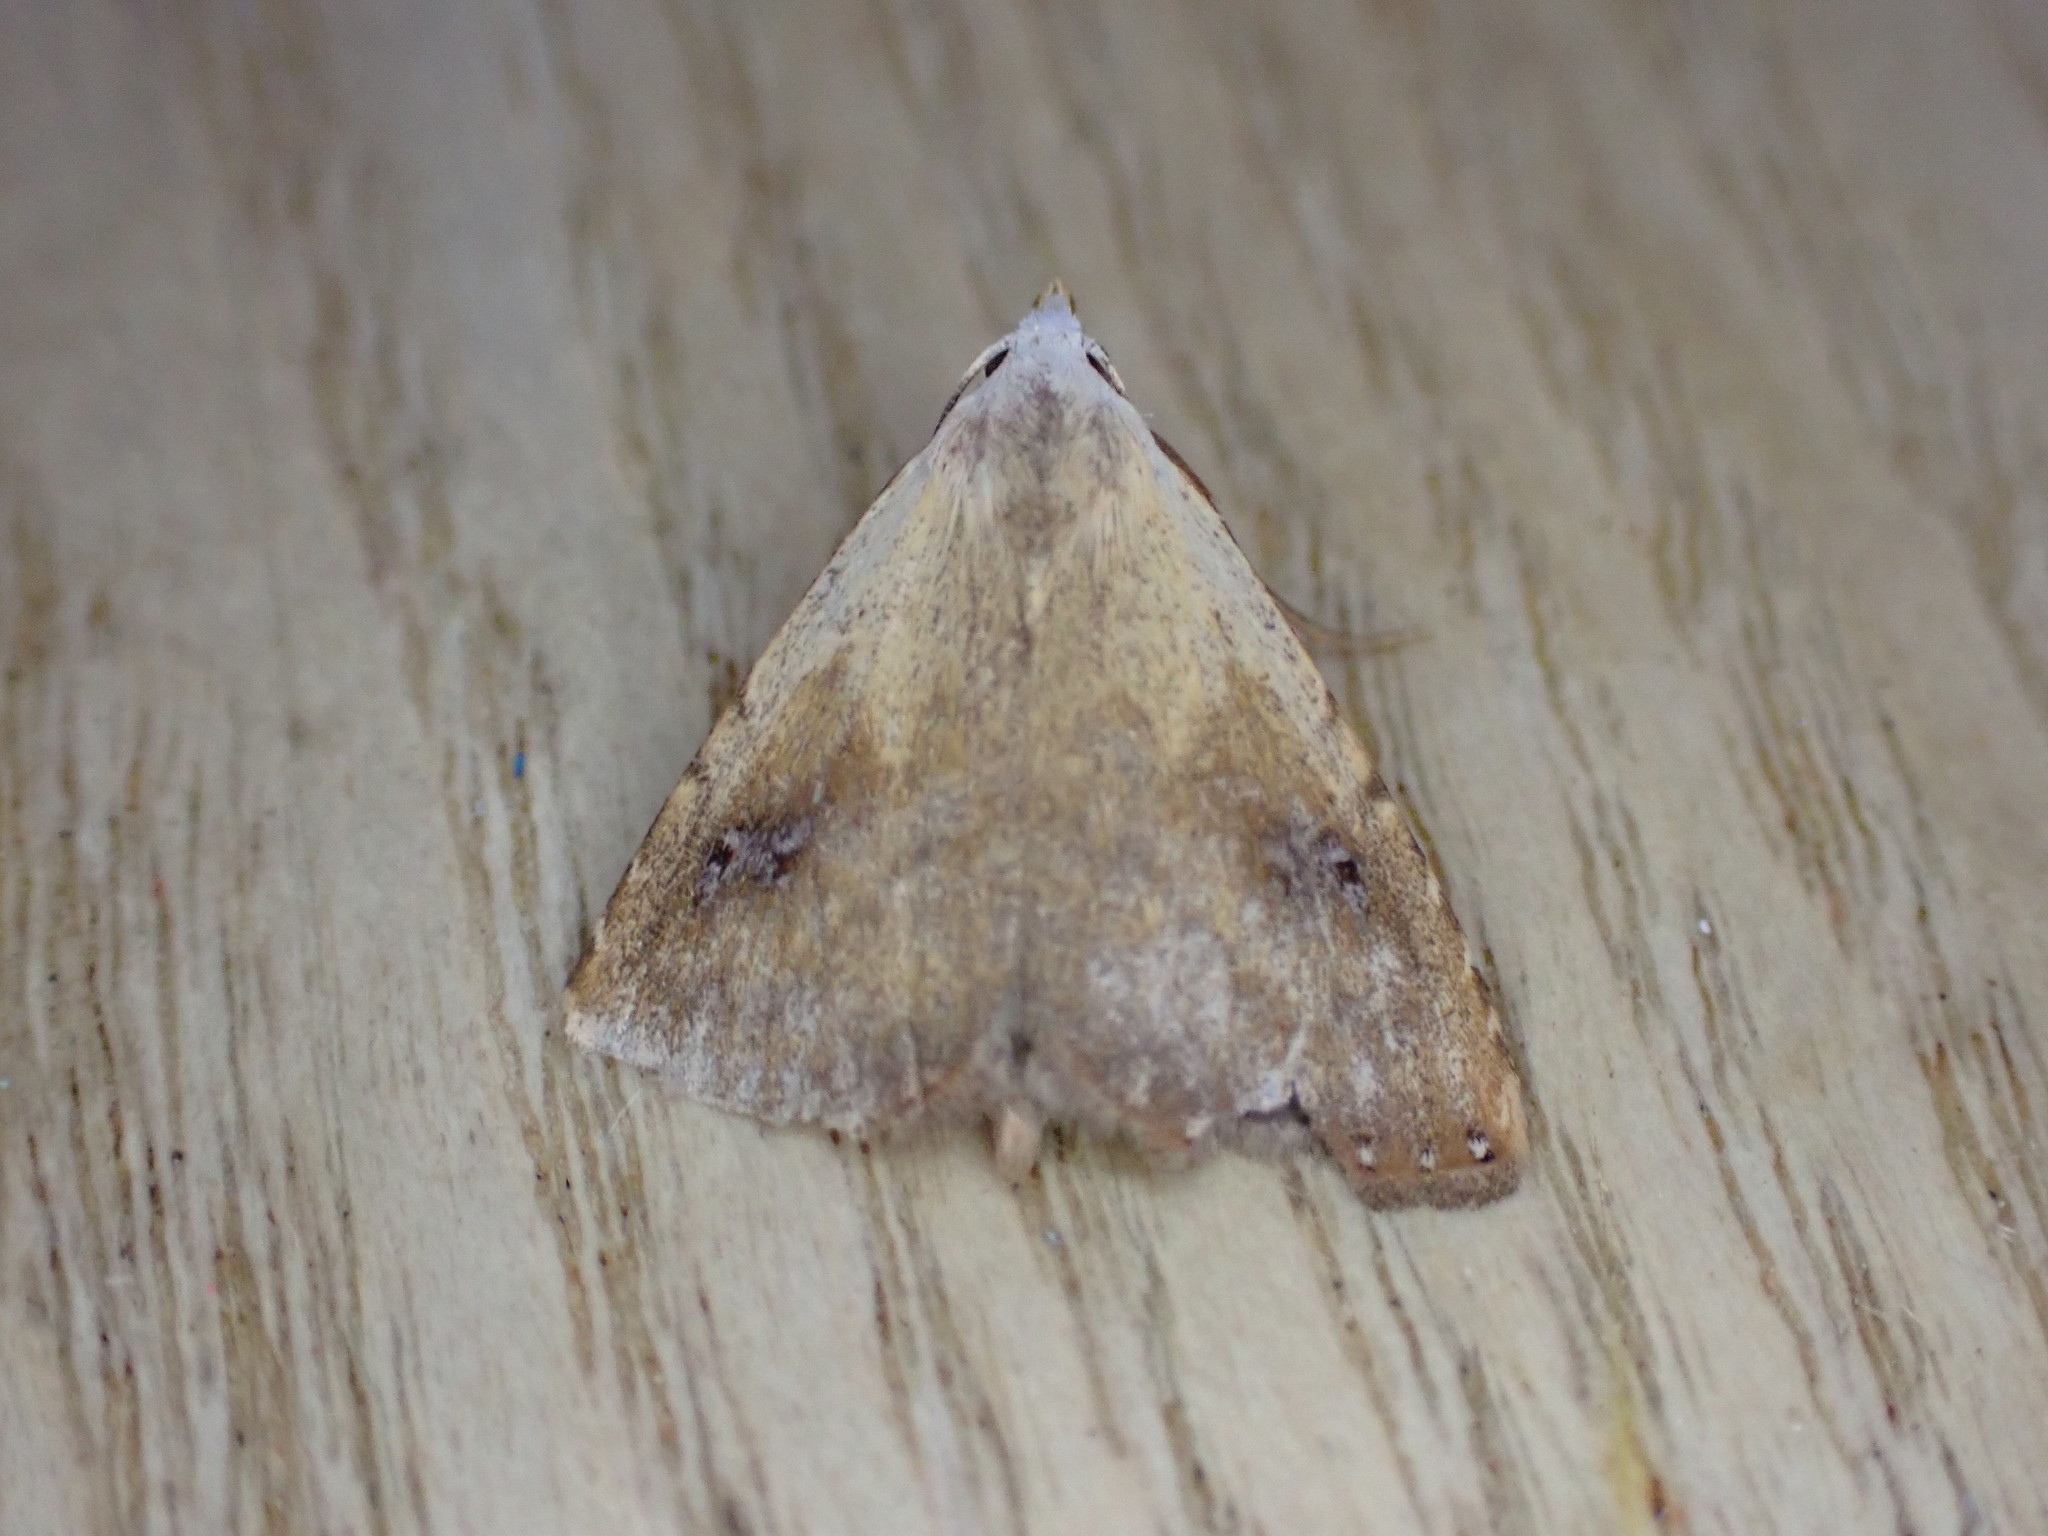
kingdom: Animalia
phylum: Arthropoda
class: Insecta
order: Lepidoptera
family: Erebidae
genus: Rivula
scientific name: Rivula sericealis
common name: Straw dot
